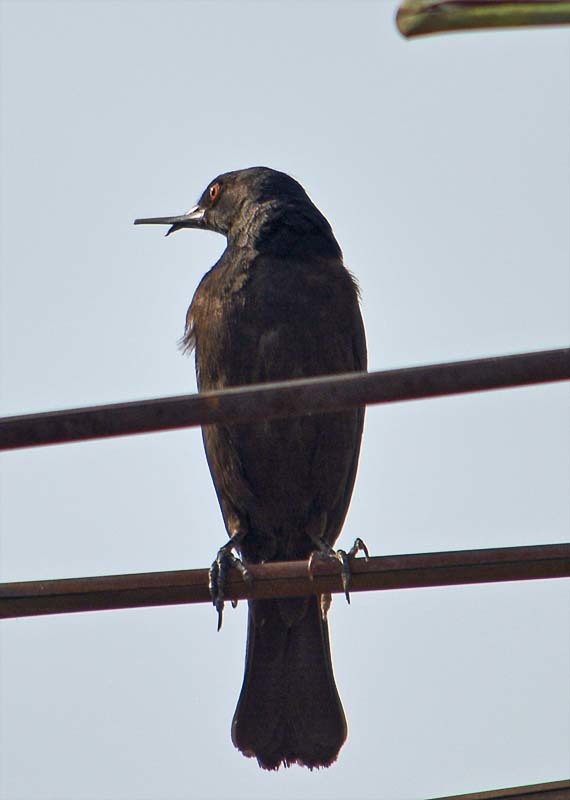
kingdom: Animalia
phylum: Chordata
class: Aves
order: Passeriformes
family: Icteridae
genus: Molothrus
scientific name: Molothrus aeneus
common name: Bronzed cowbird
